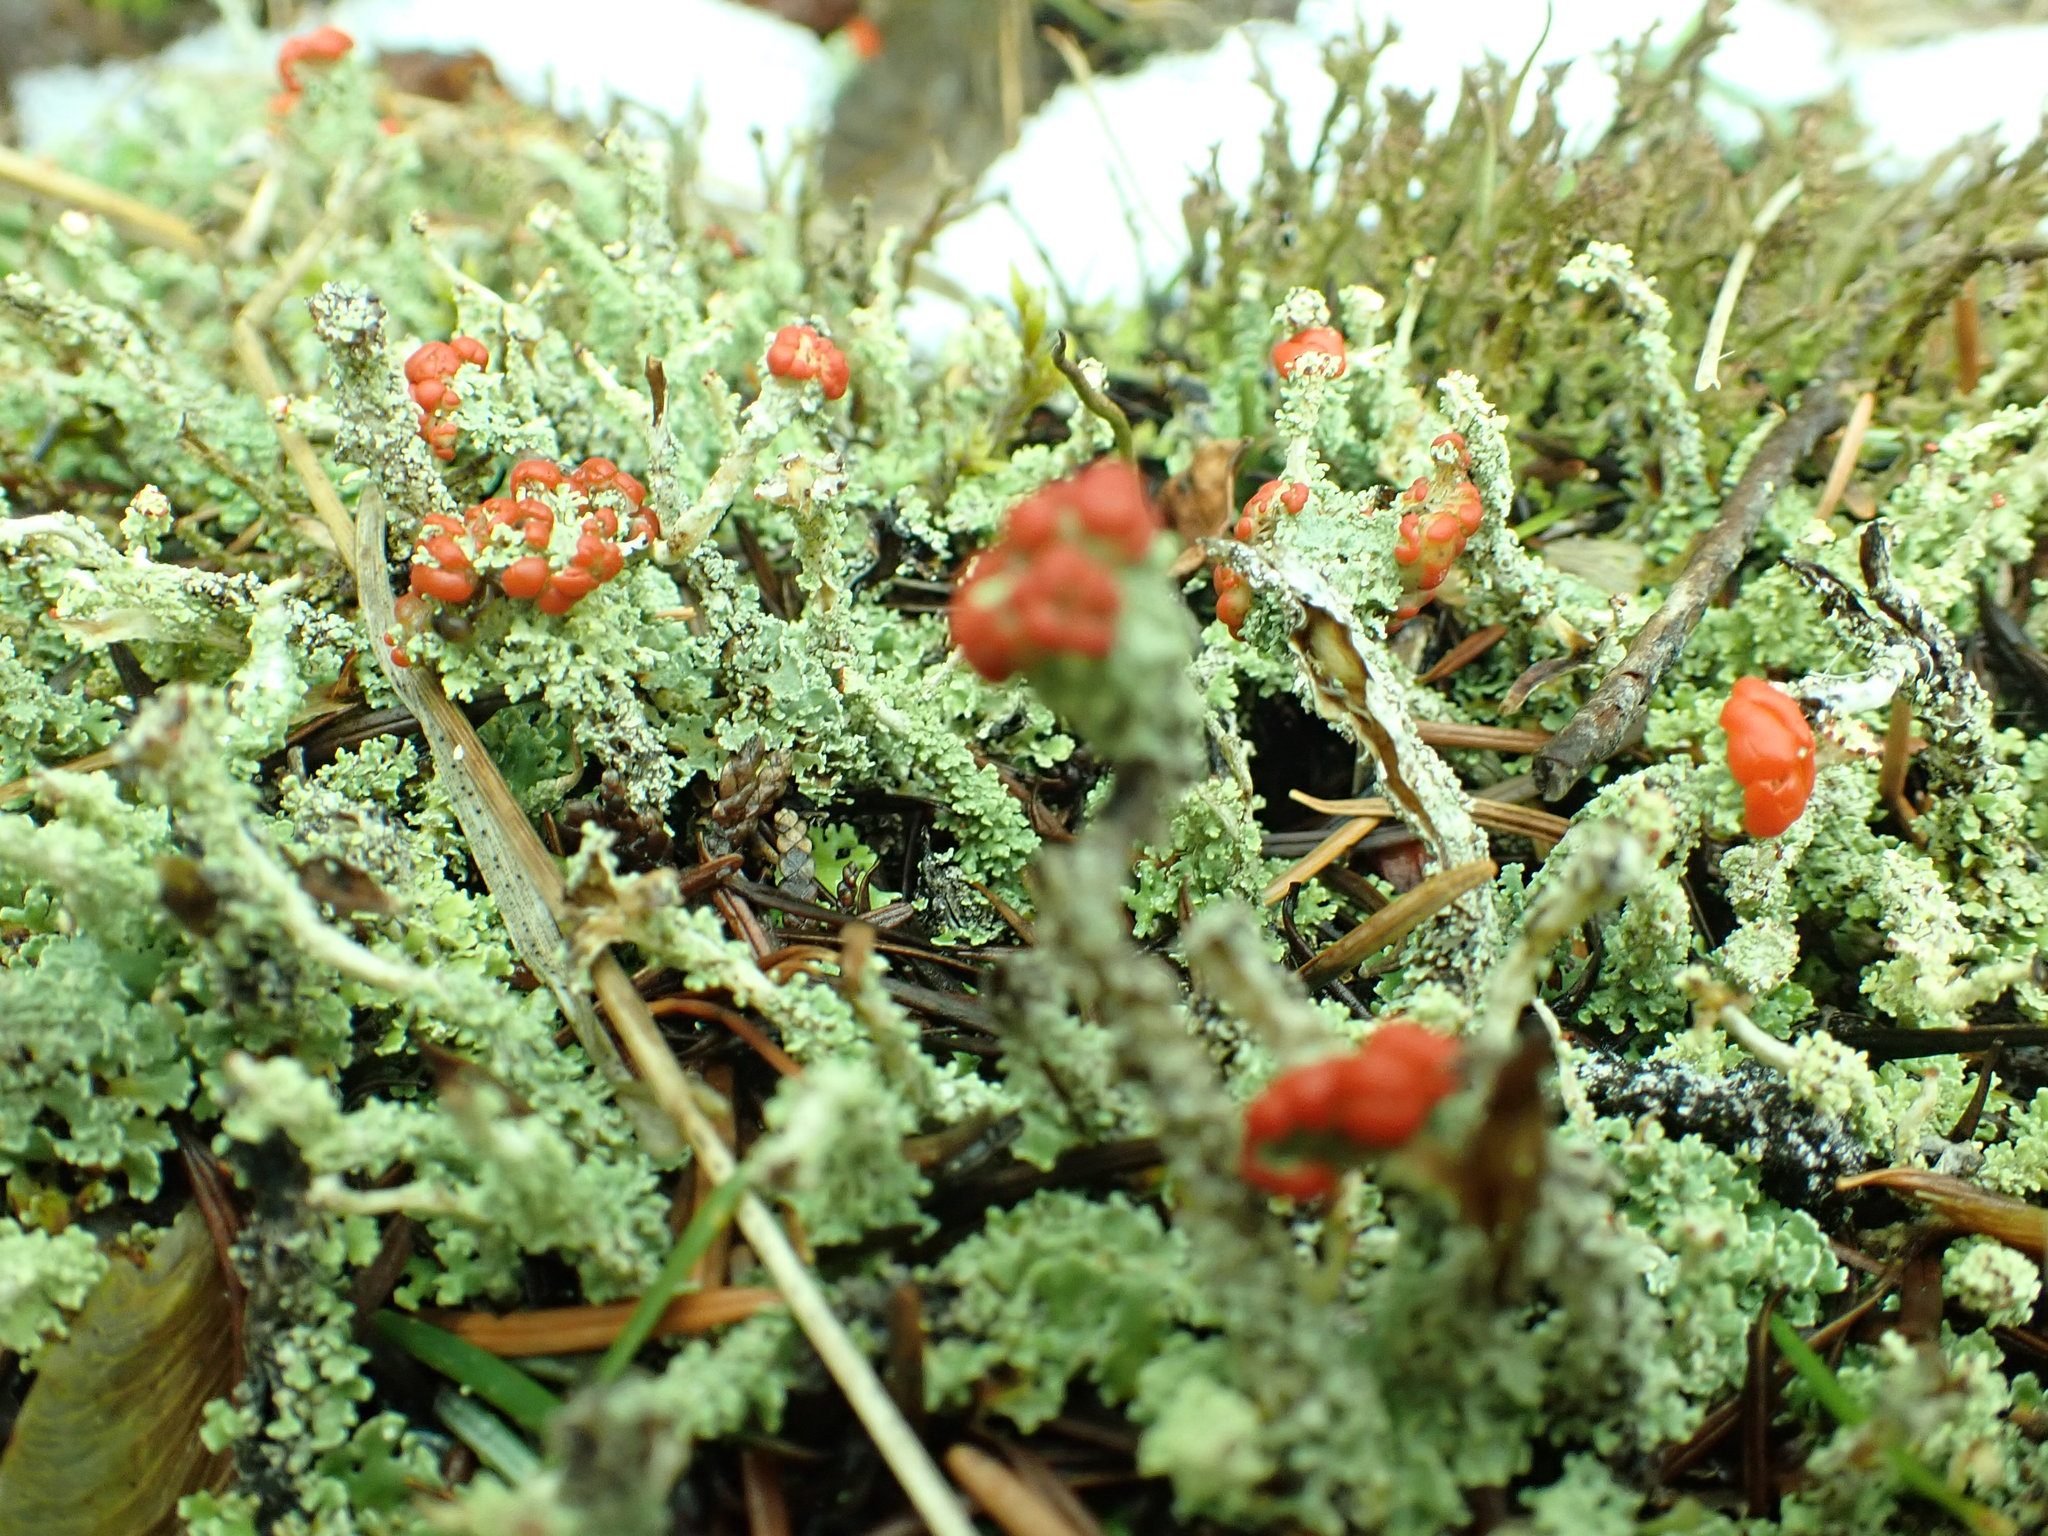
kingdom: Fungi
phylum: Ascomycota
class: Lecanoromycetes
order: Lecanorales
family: Cladoniaceae
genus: Cladonia
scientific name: Cladonia bellidiflora
